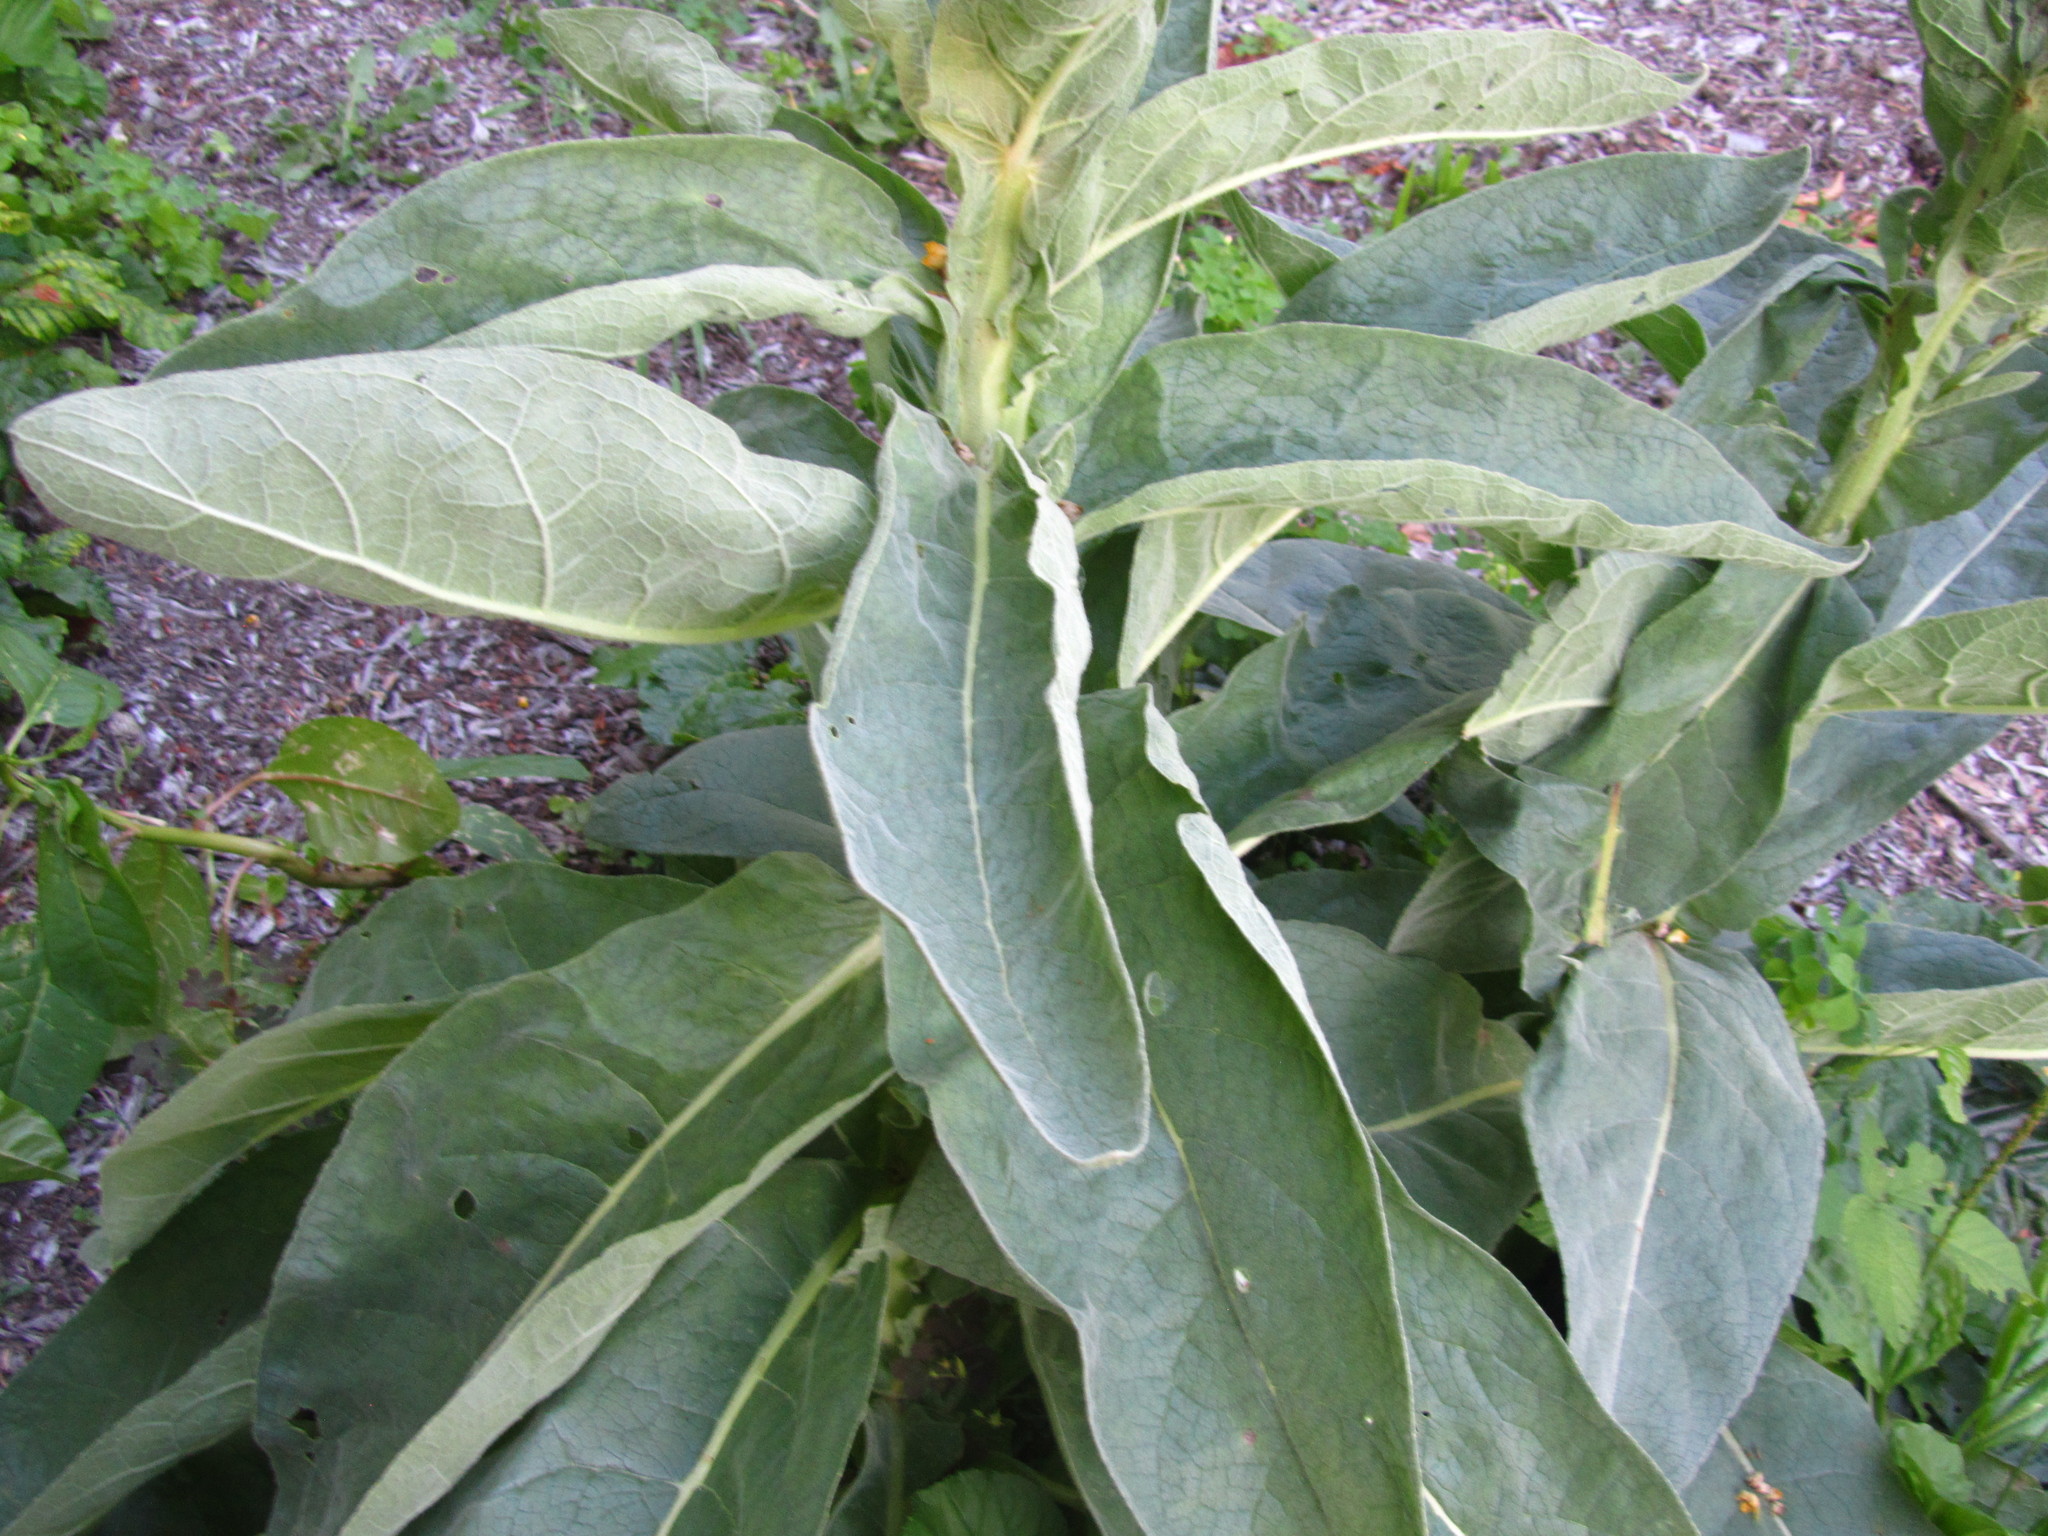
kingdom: Plantae
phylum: Tracheophyta
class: Magnoliopsida
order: Lamiales
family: Scrophulariaceae
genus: Verbascum
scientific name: Verbascum thapsus
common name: Common mullein
